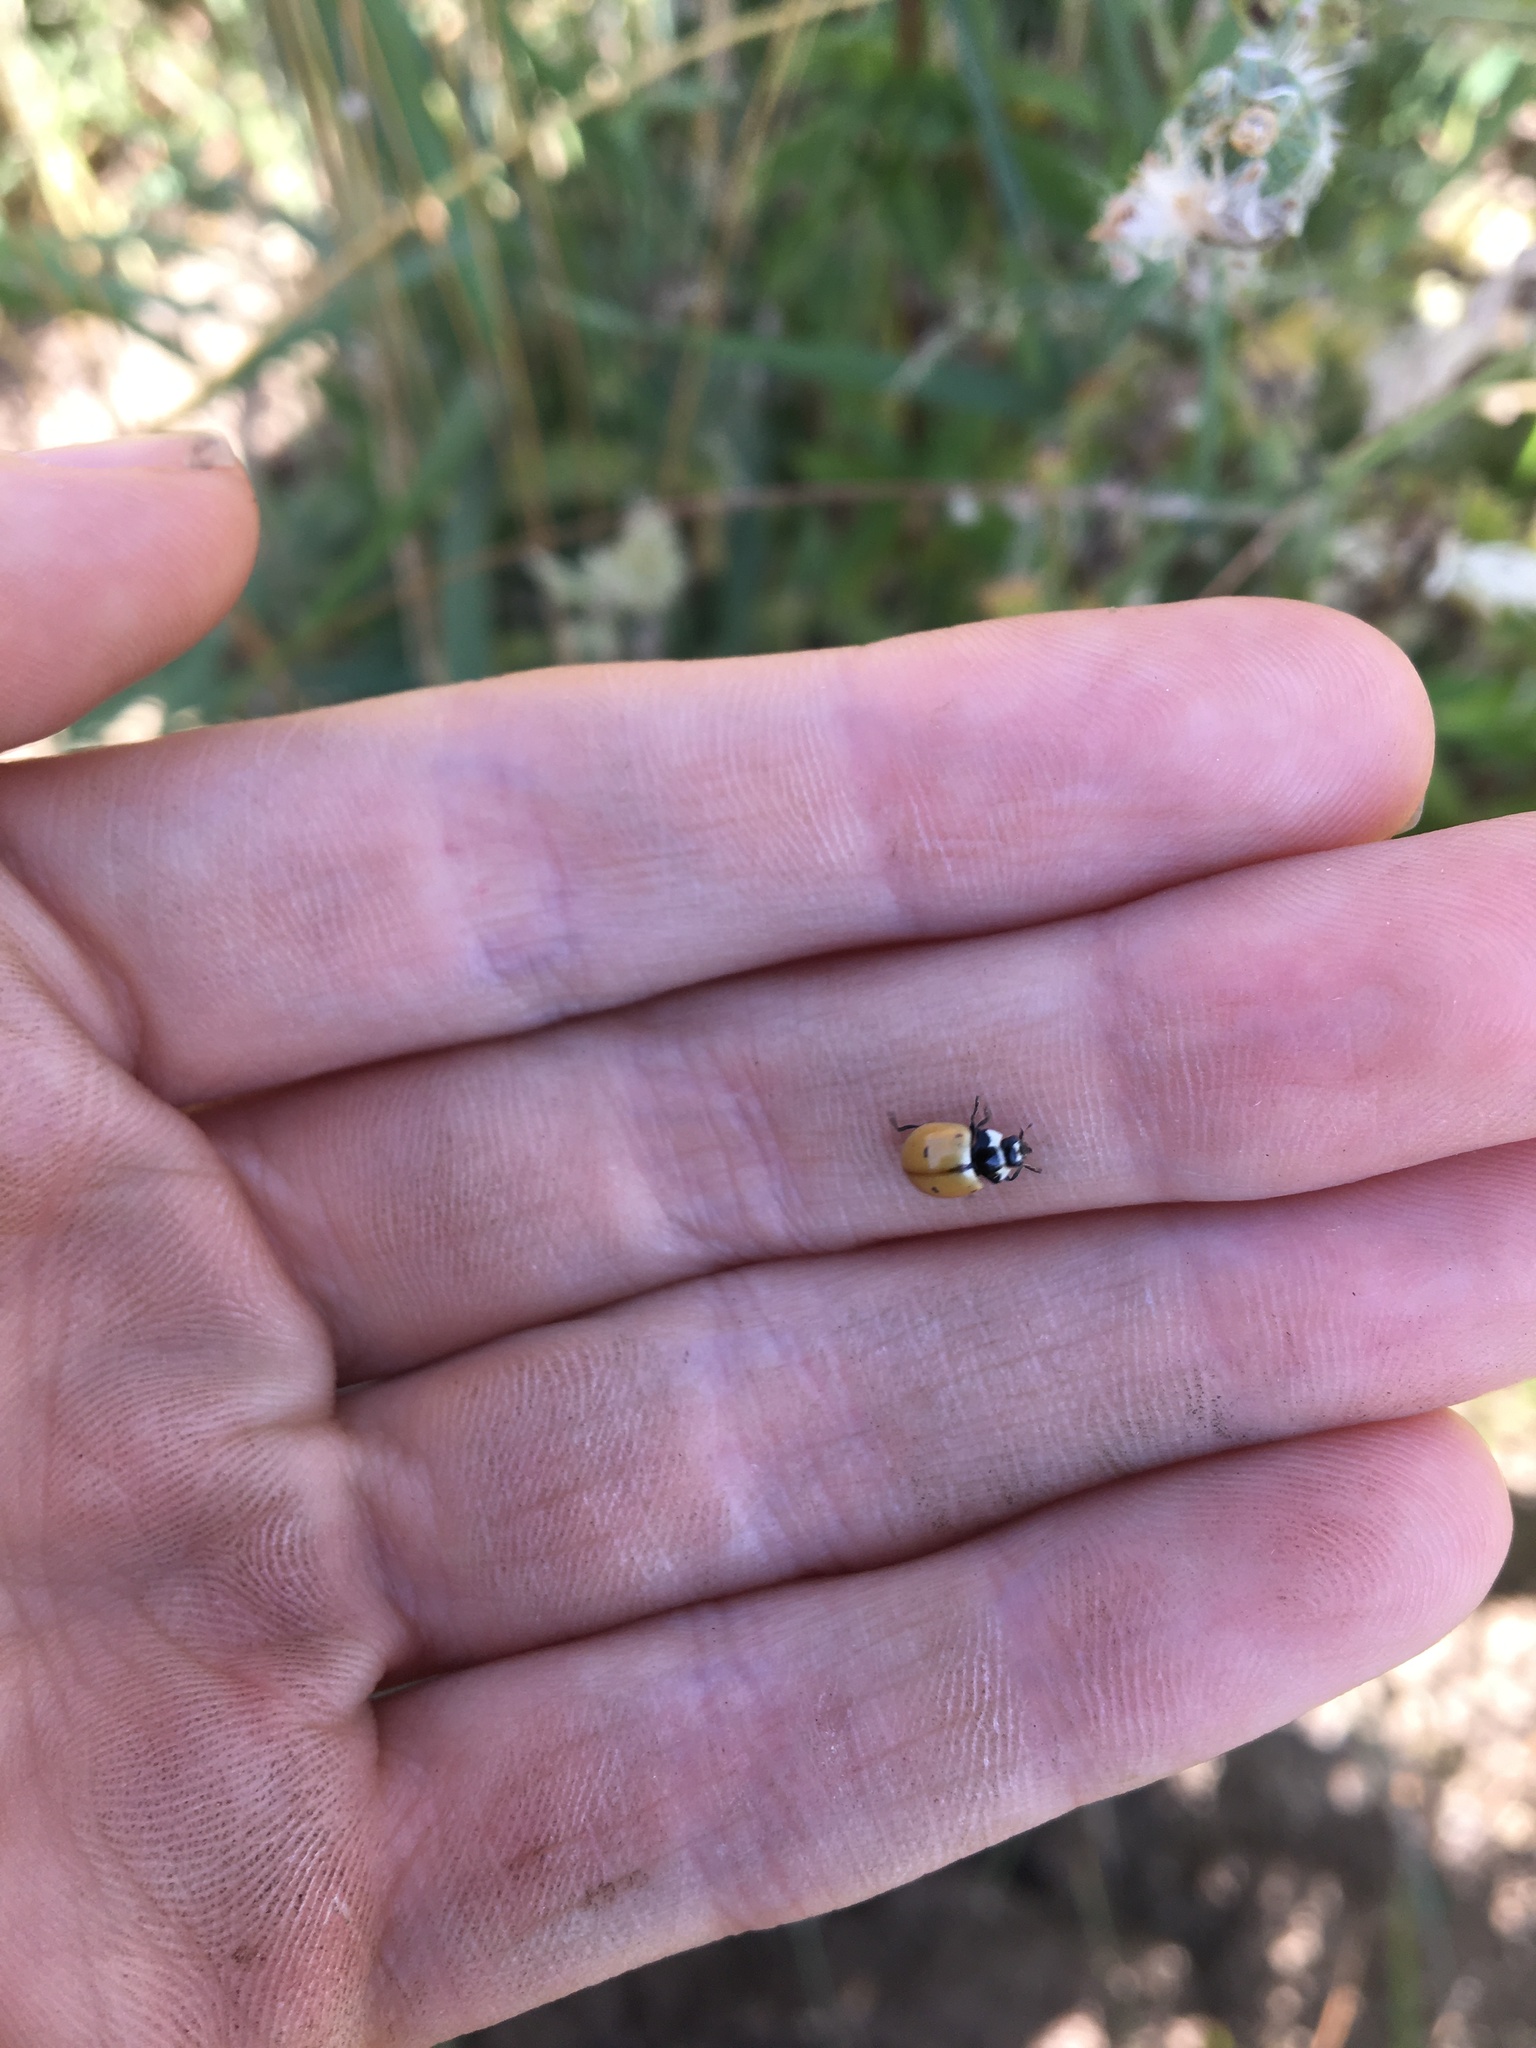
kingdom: Animalia
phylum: Arthropoda
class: Insecta
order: Coleoptera
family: Coccinellidae
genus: Coccinella
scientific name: Coccinella novemnotata
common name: Nine-spotted lady beetle
